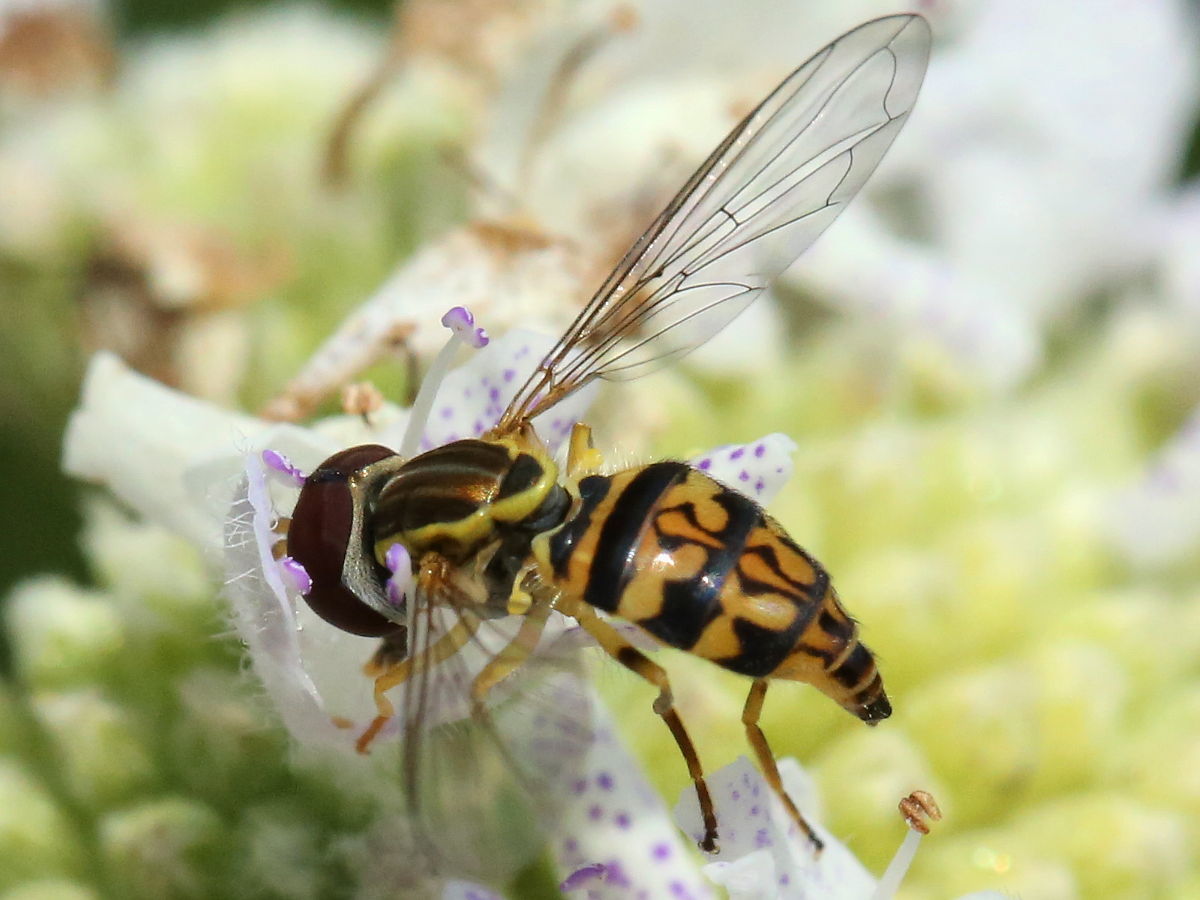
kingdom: Animalia
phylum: Arthropoda
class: Insecta
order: Diptera
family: Syrphidae
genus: Toxomerus
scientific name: Toxomerus geminatus
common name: Eastern calligrapher
